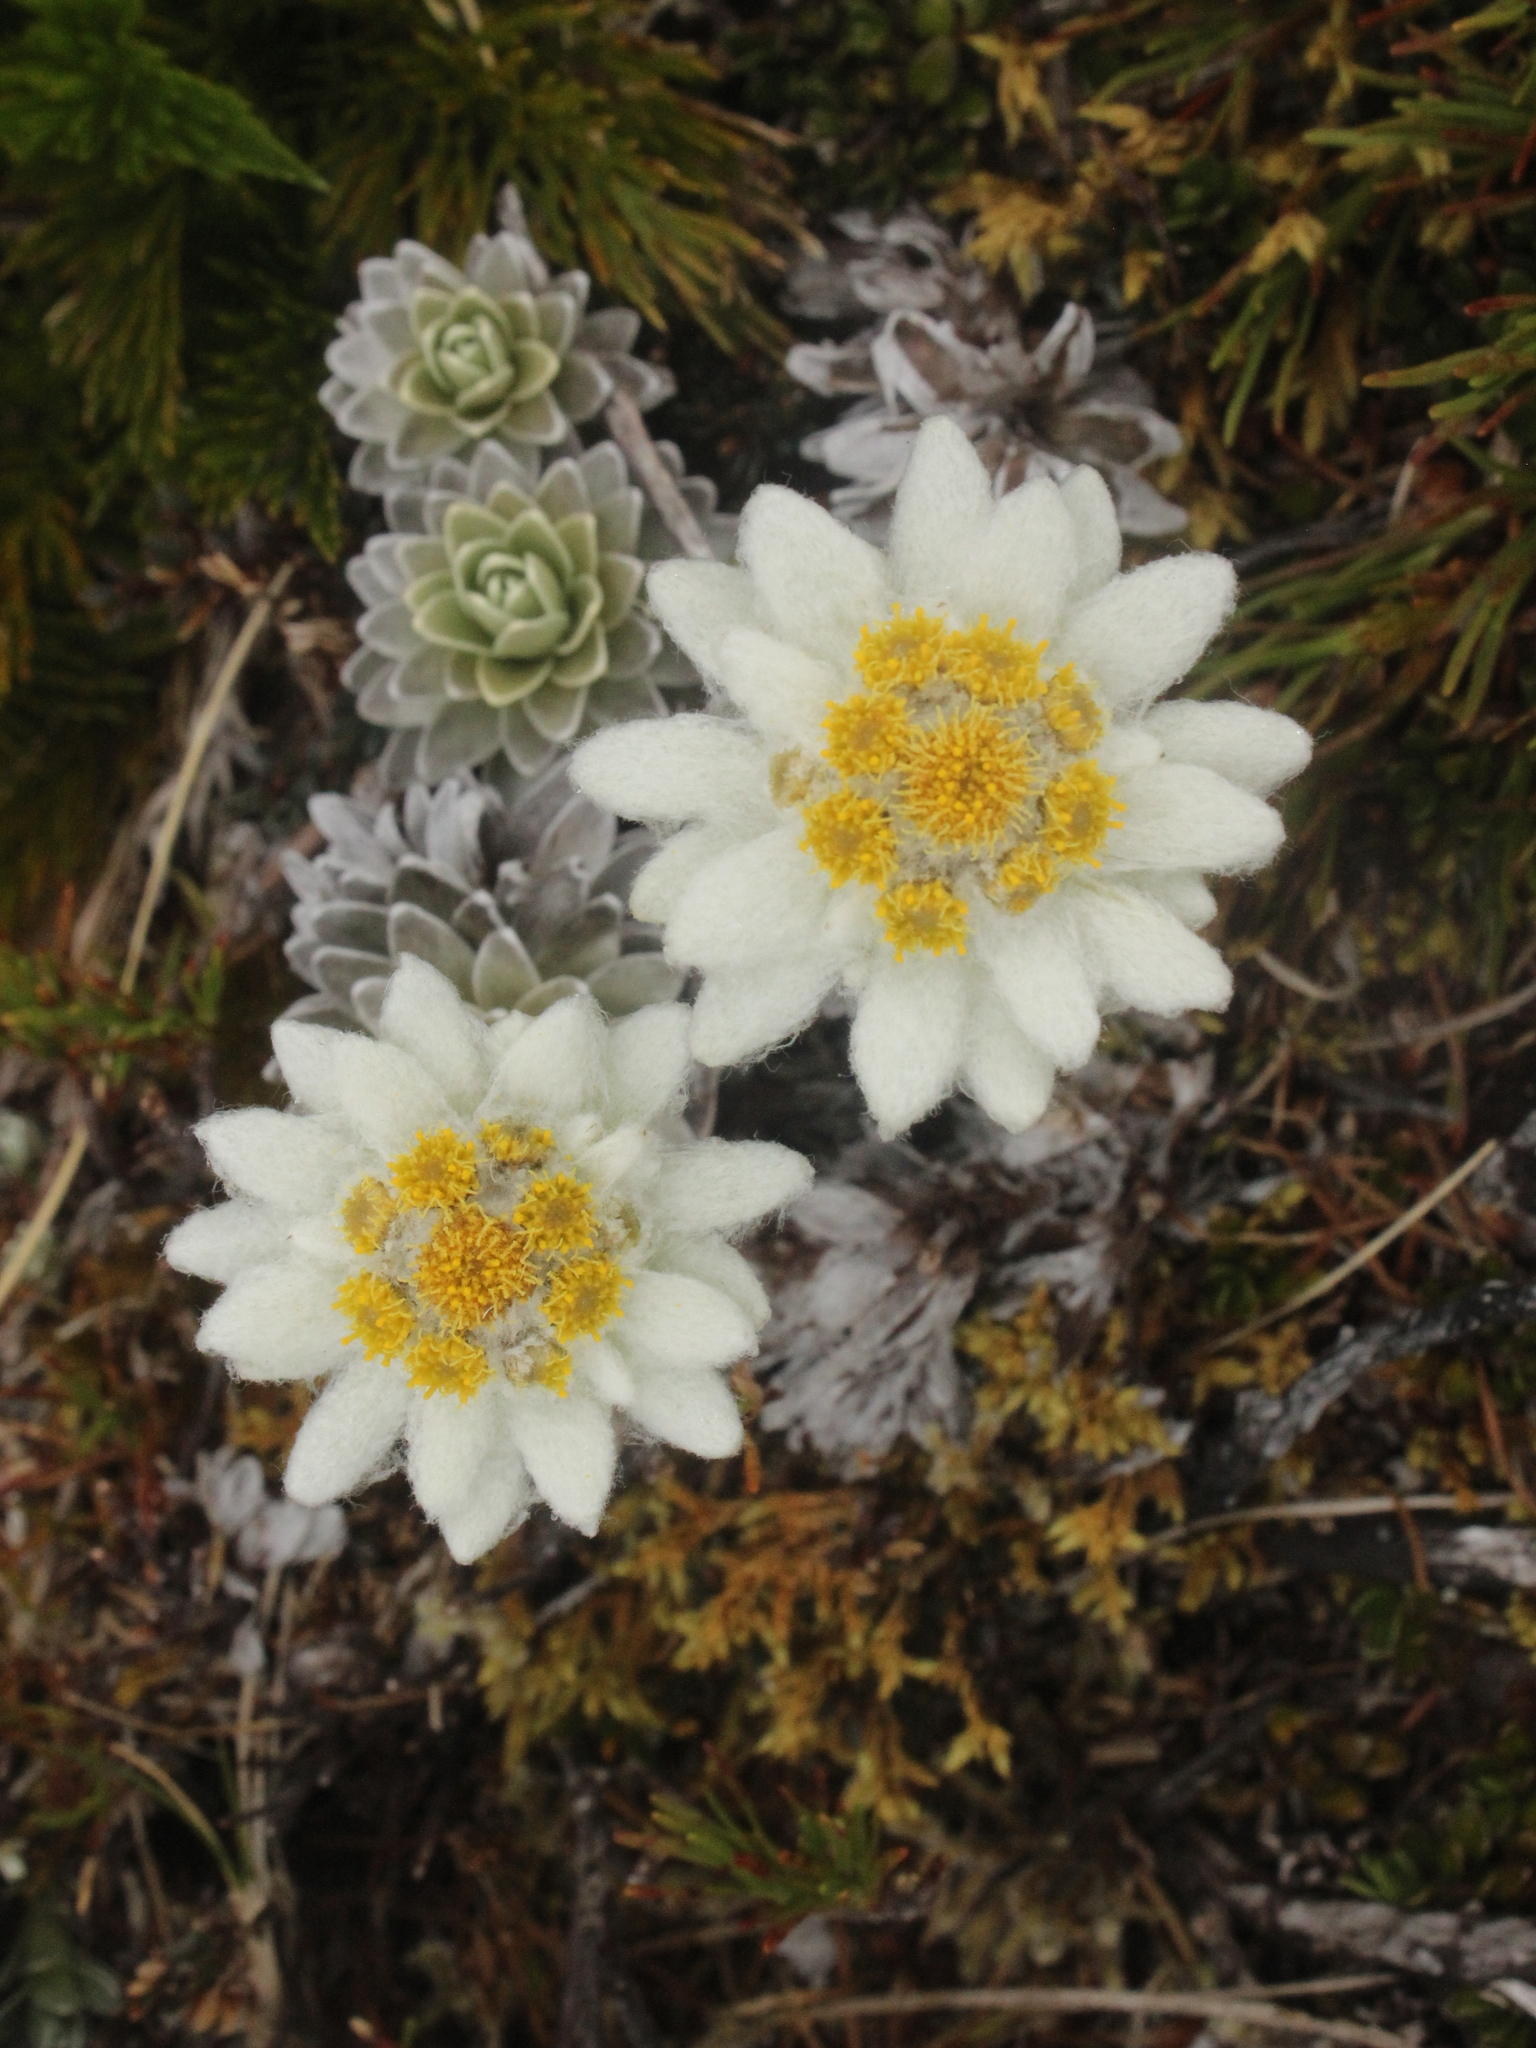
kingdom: Plantae
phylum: Tracheophyta
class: Magnoliopsida
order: Asterales
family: Asteraceae
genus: Leucogenes
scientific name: Leucogenes leontopodium
